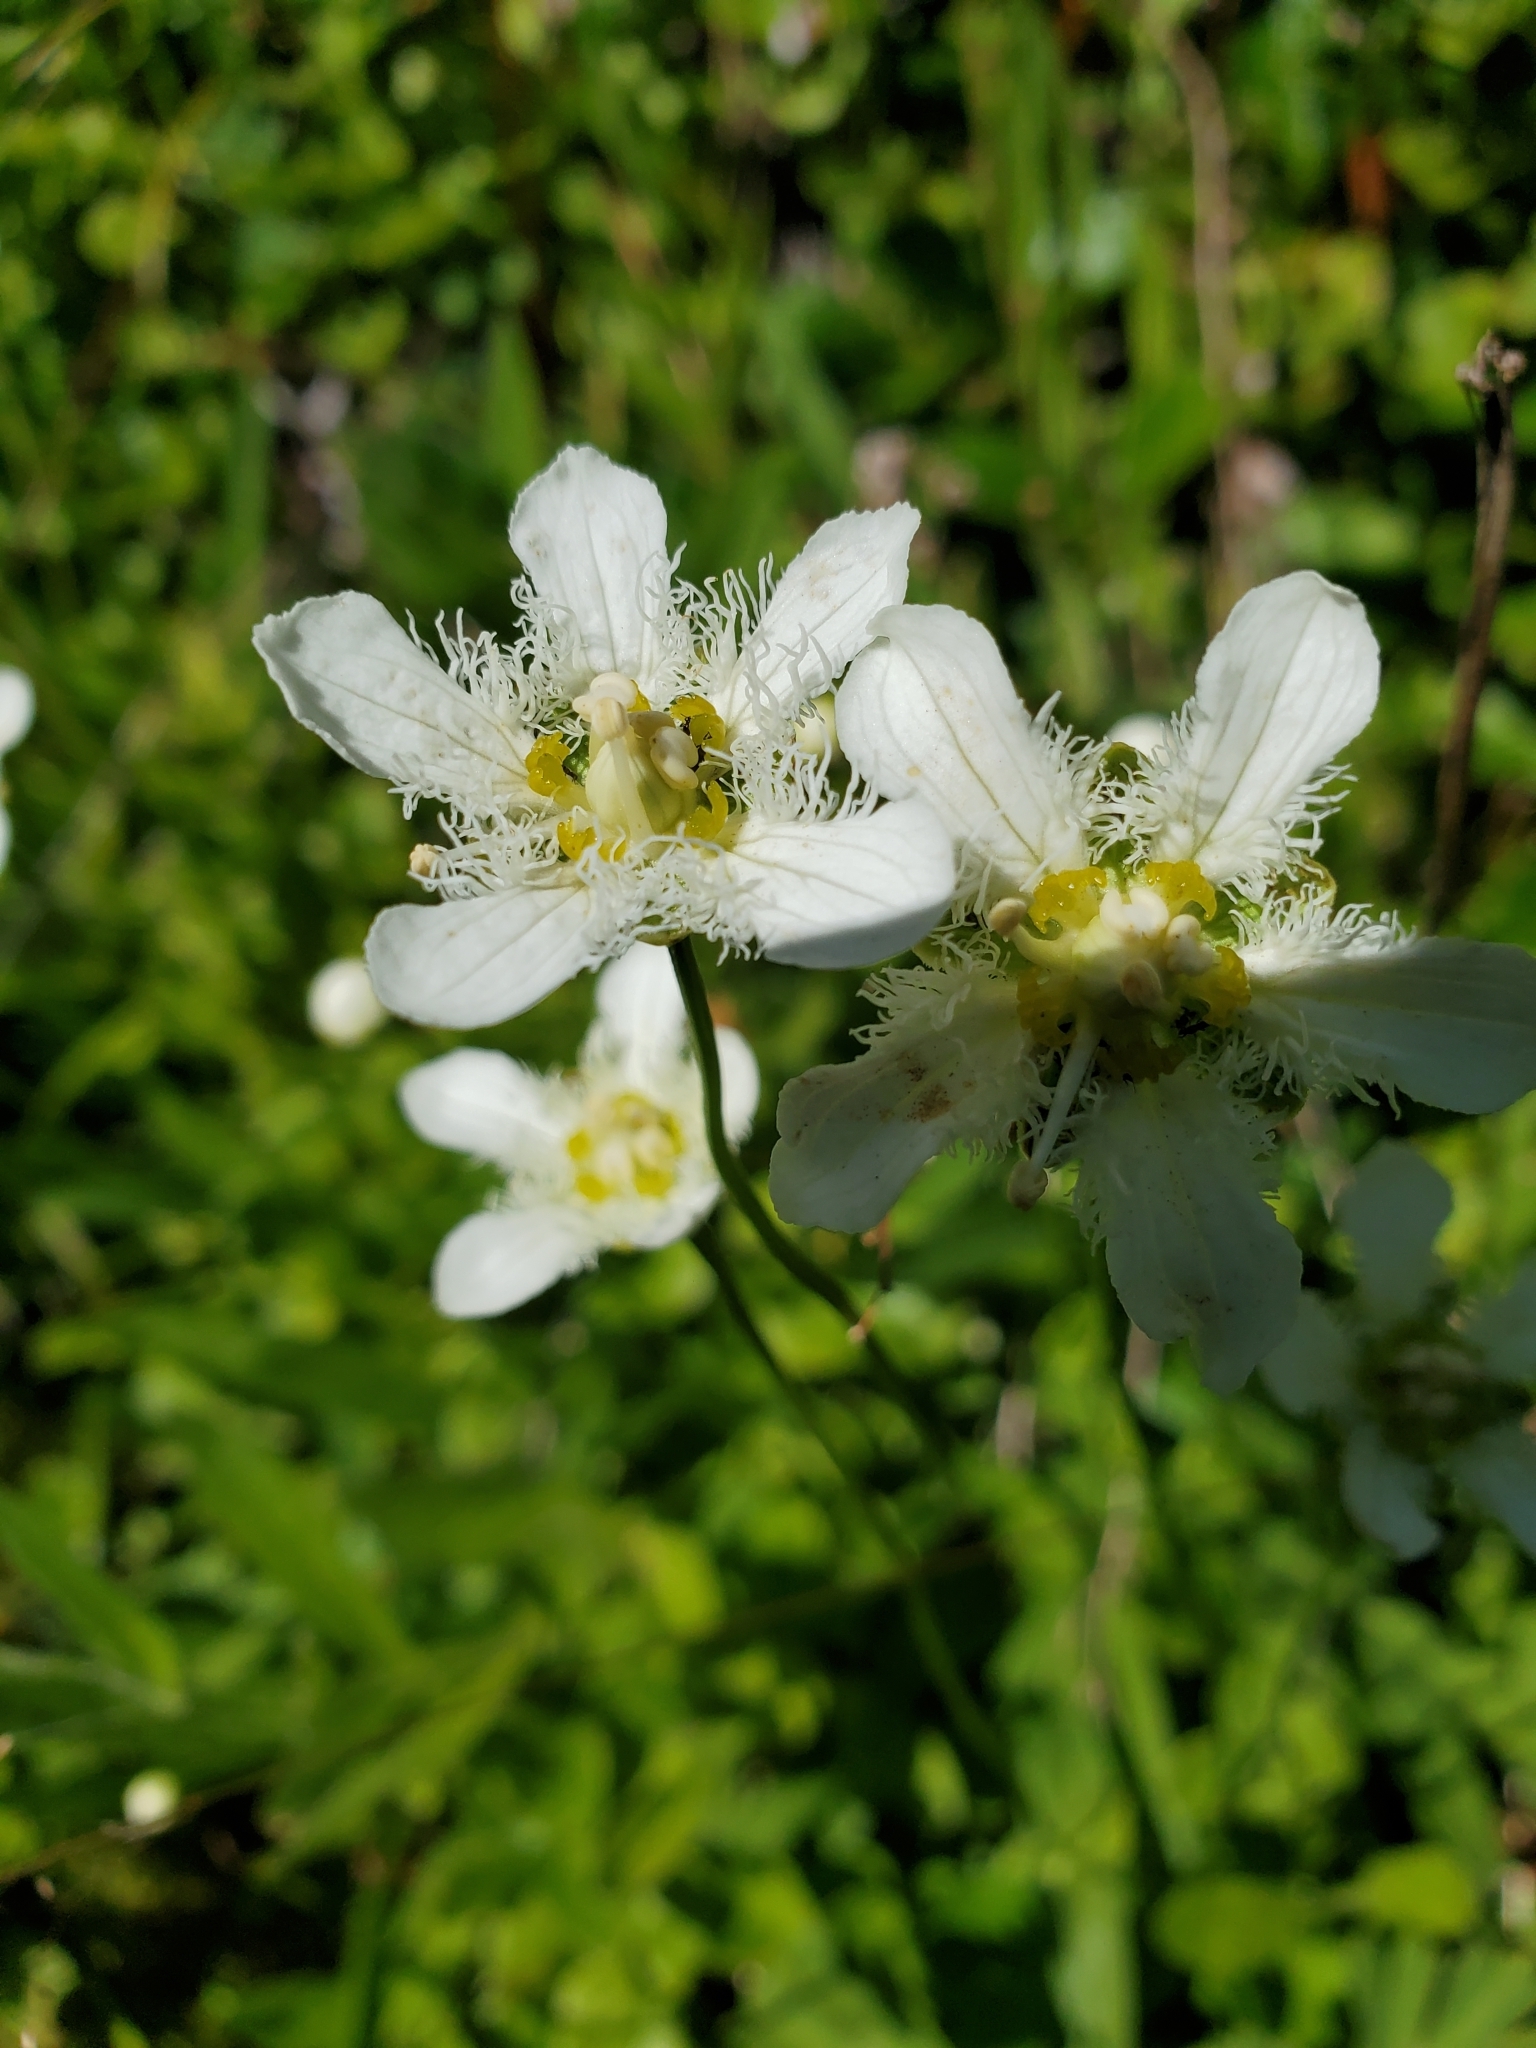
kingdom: Plantae
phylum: Tracheophyta
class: Magnoliopsida
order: Celastrales
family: Parnassiaceae
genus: Parnassia
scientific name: Parnassia fimbriata
